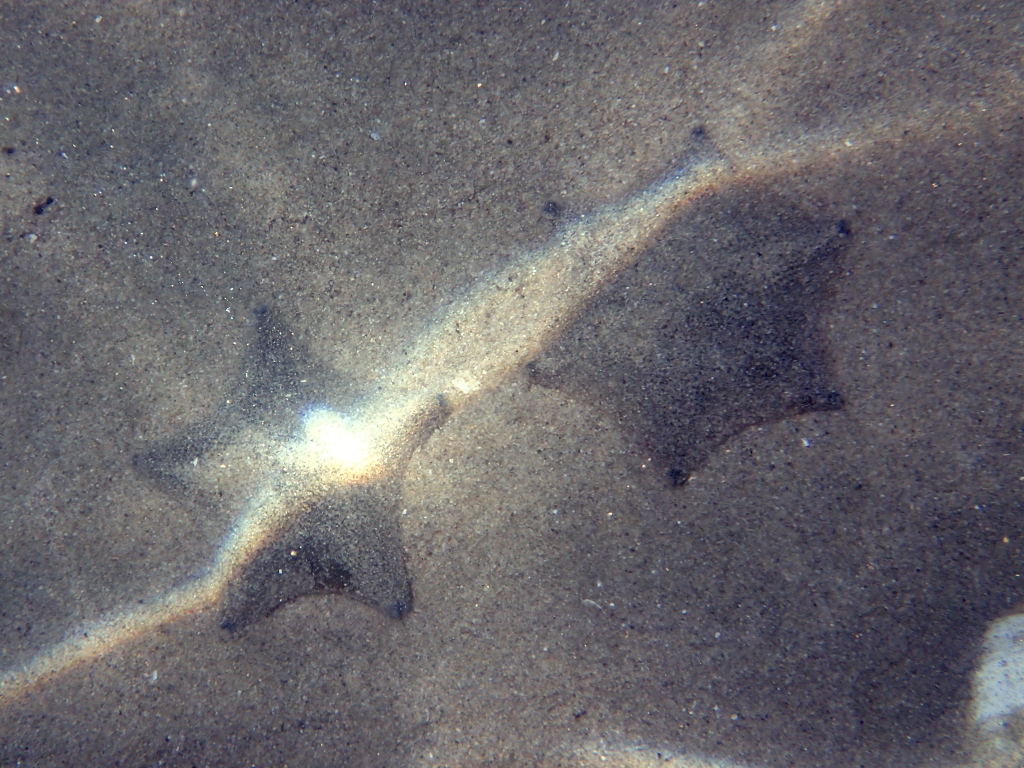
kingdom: Animalia
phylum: Echinodermata
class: Asteroidea
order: Valvatida
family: Asterinidae
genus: Patiriella
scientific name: Patiriella regularis
